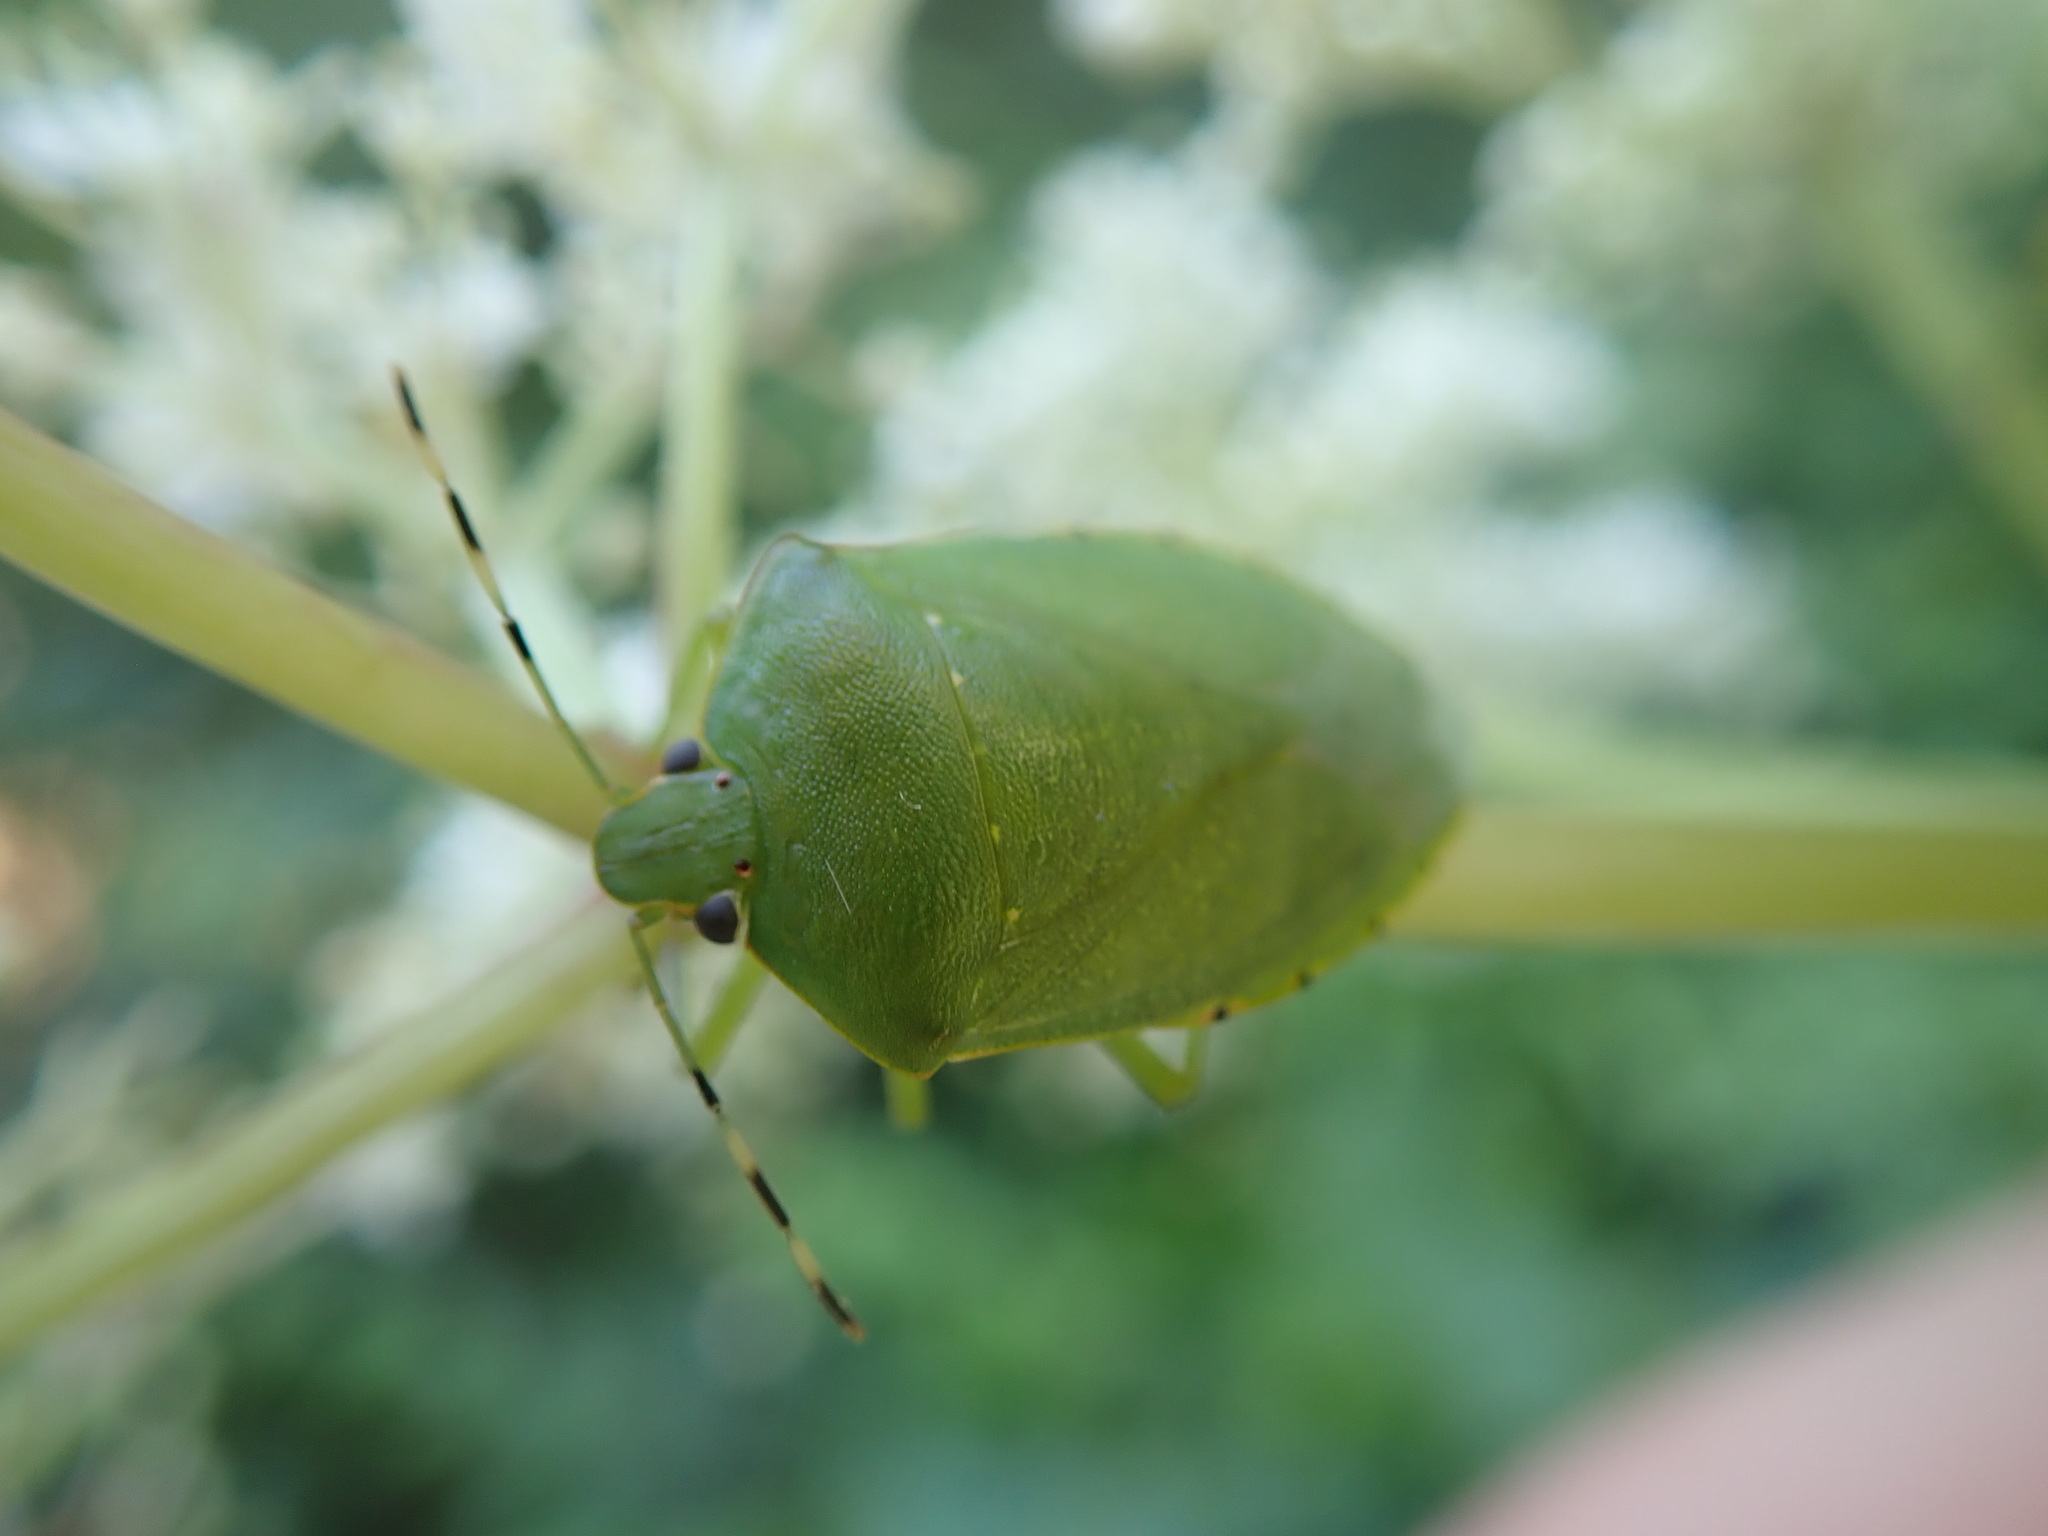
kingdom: Animalia
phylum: Arthropoda
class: Insecta
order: Hemiptera
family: Pentatomidae
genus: Chinavia
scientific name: Chinavia hilaris
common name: Green stink bug
